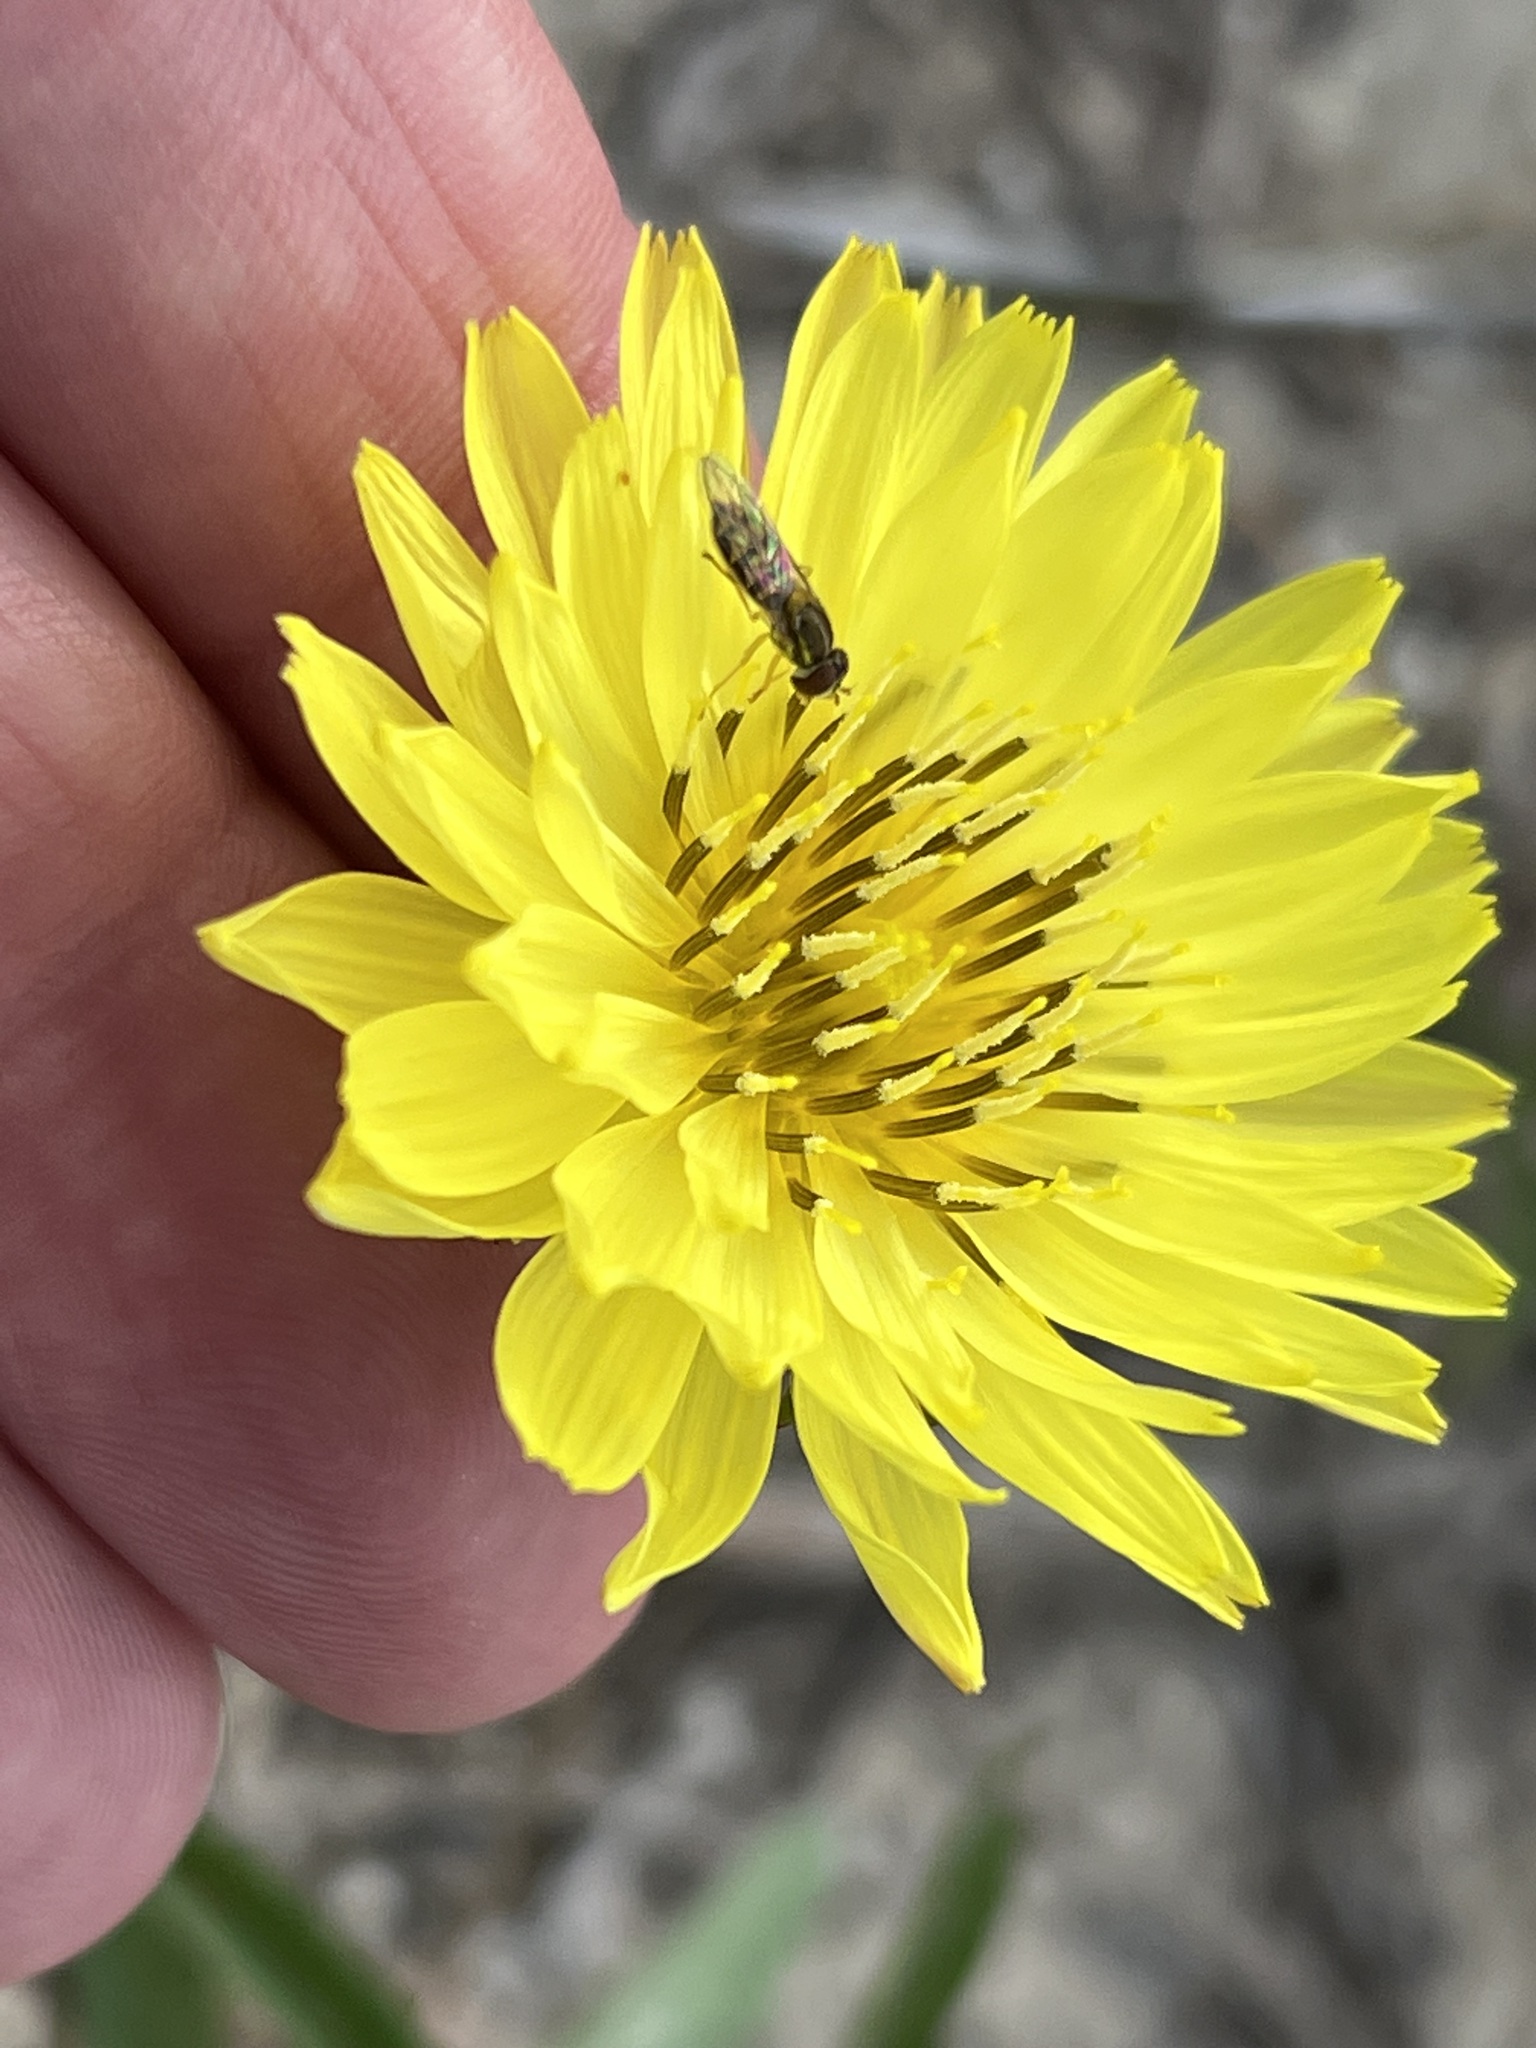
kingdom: Animalia
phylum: Arthropoda
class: Insecta
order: Diptera
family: Syrphidae
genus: Toxomerus
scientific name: Toxomerus marginatus
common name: Syrphid fly
